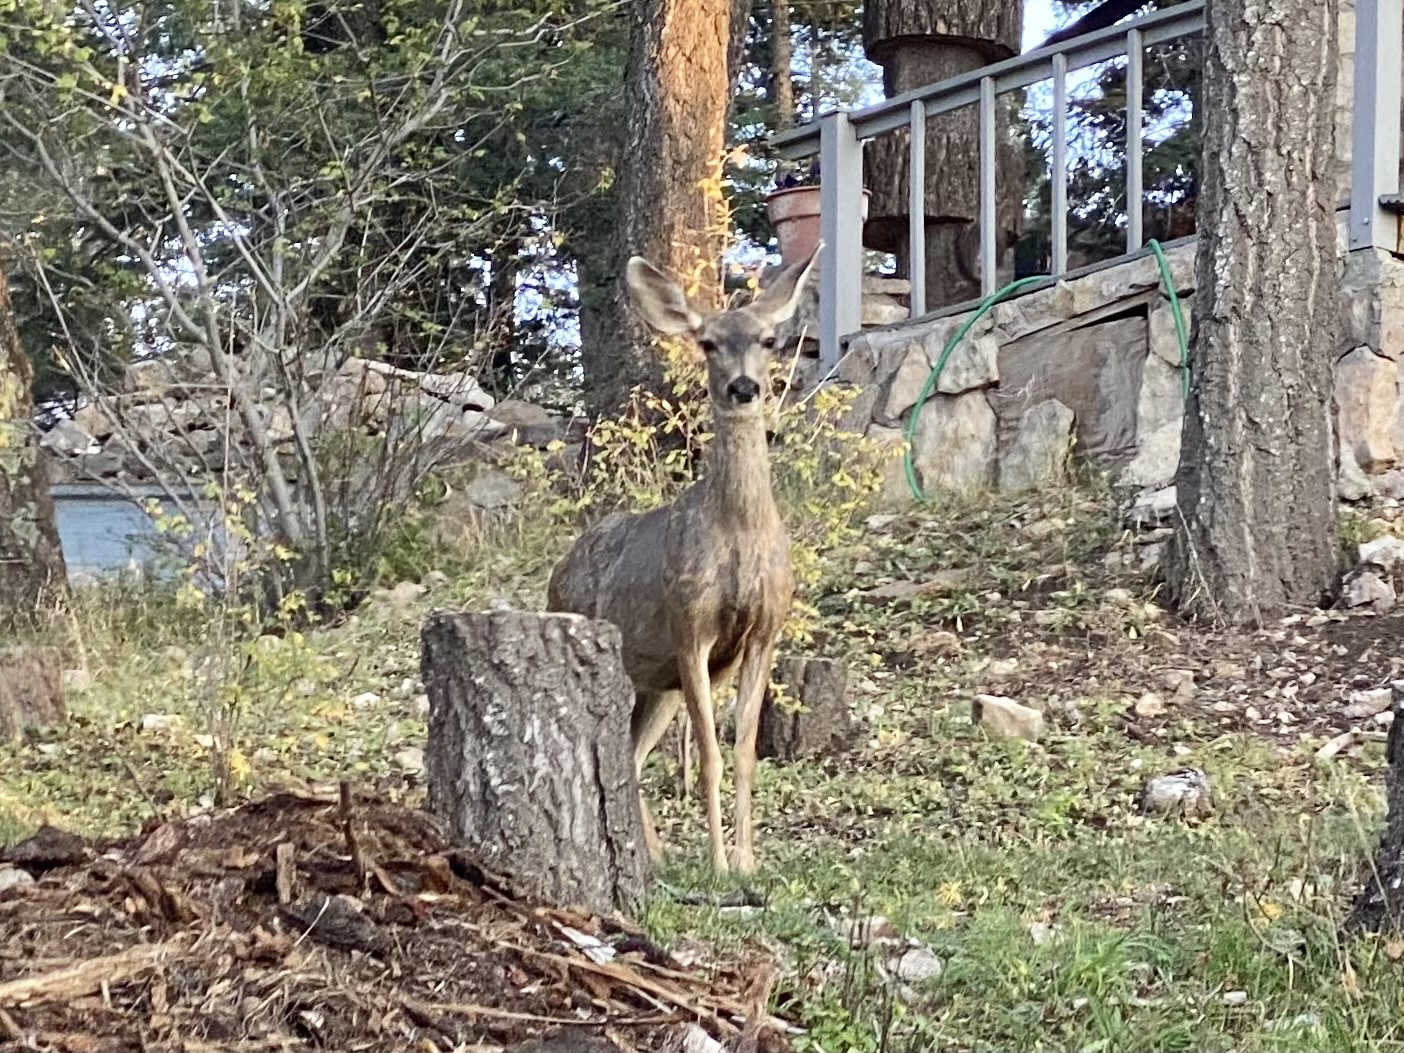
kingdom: Animalia
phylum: Chordata
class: Mammalia
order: Artiodactyla
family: Cervidae
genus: Odocoileus
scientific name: Odocoileus hemionus
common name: Mule deer
